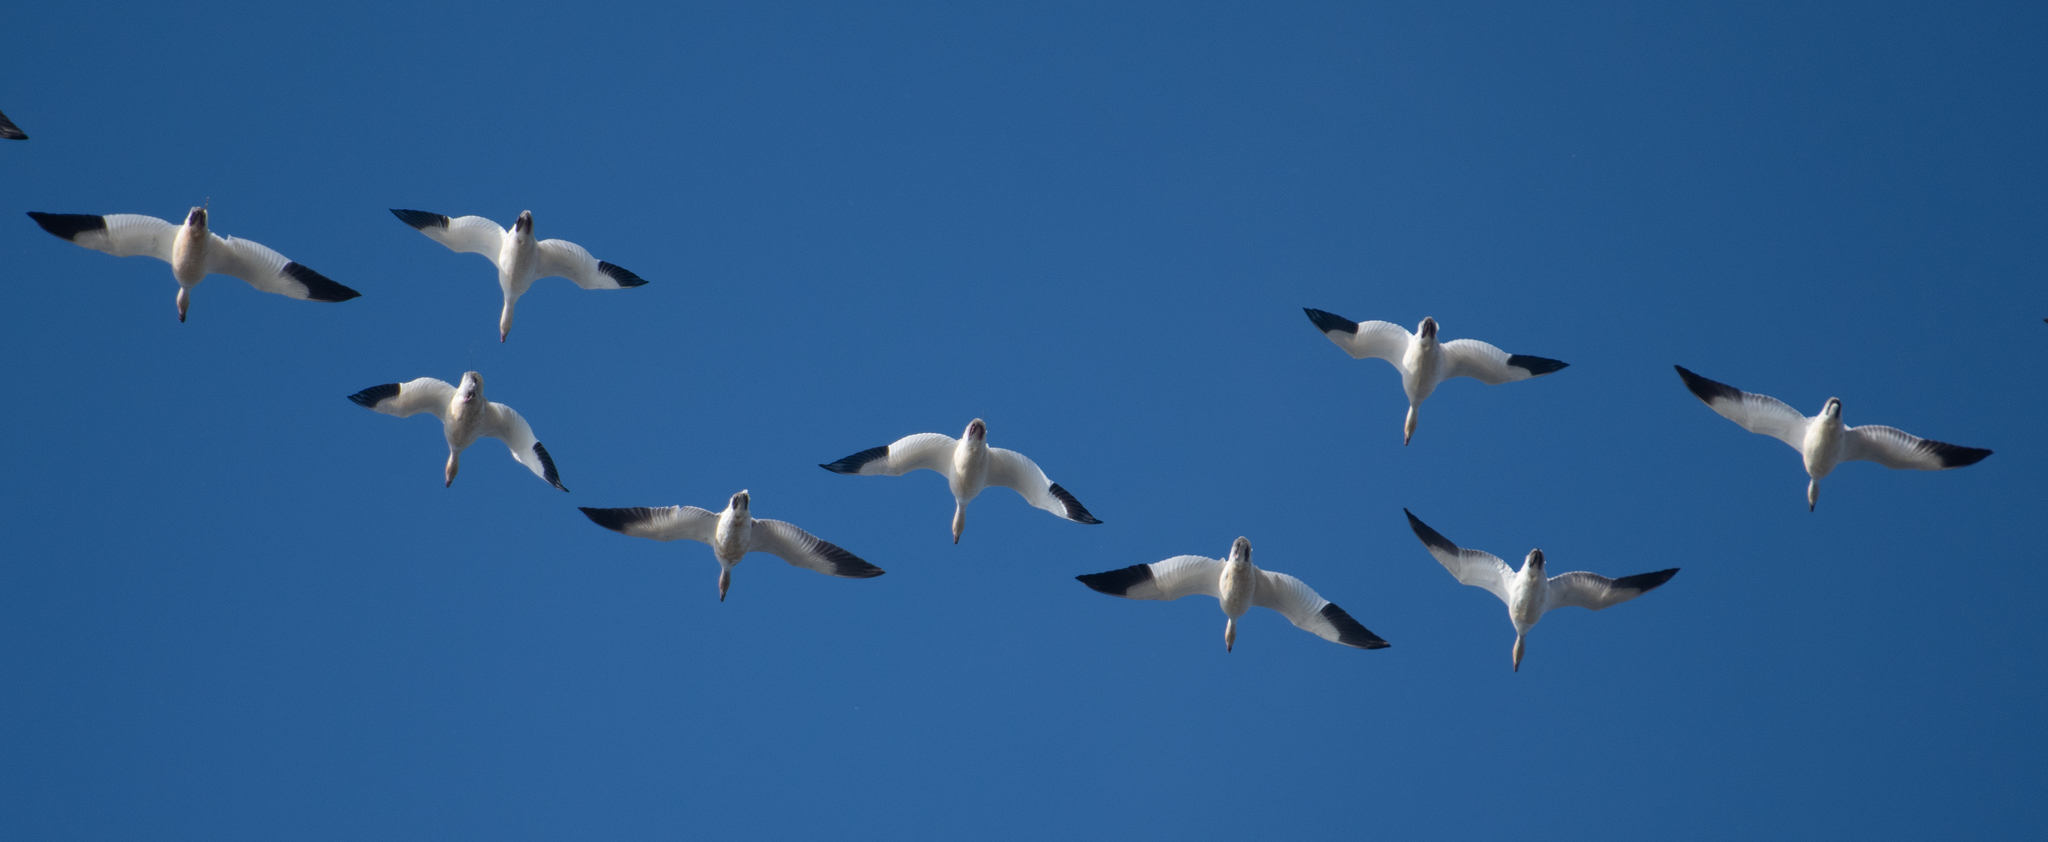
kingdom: Animalia
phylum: Chordata
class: Aves
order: Anseriformes
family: Anatidae
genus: Anser
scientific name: Anser caerulescens
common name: Snow goose
